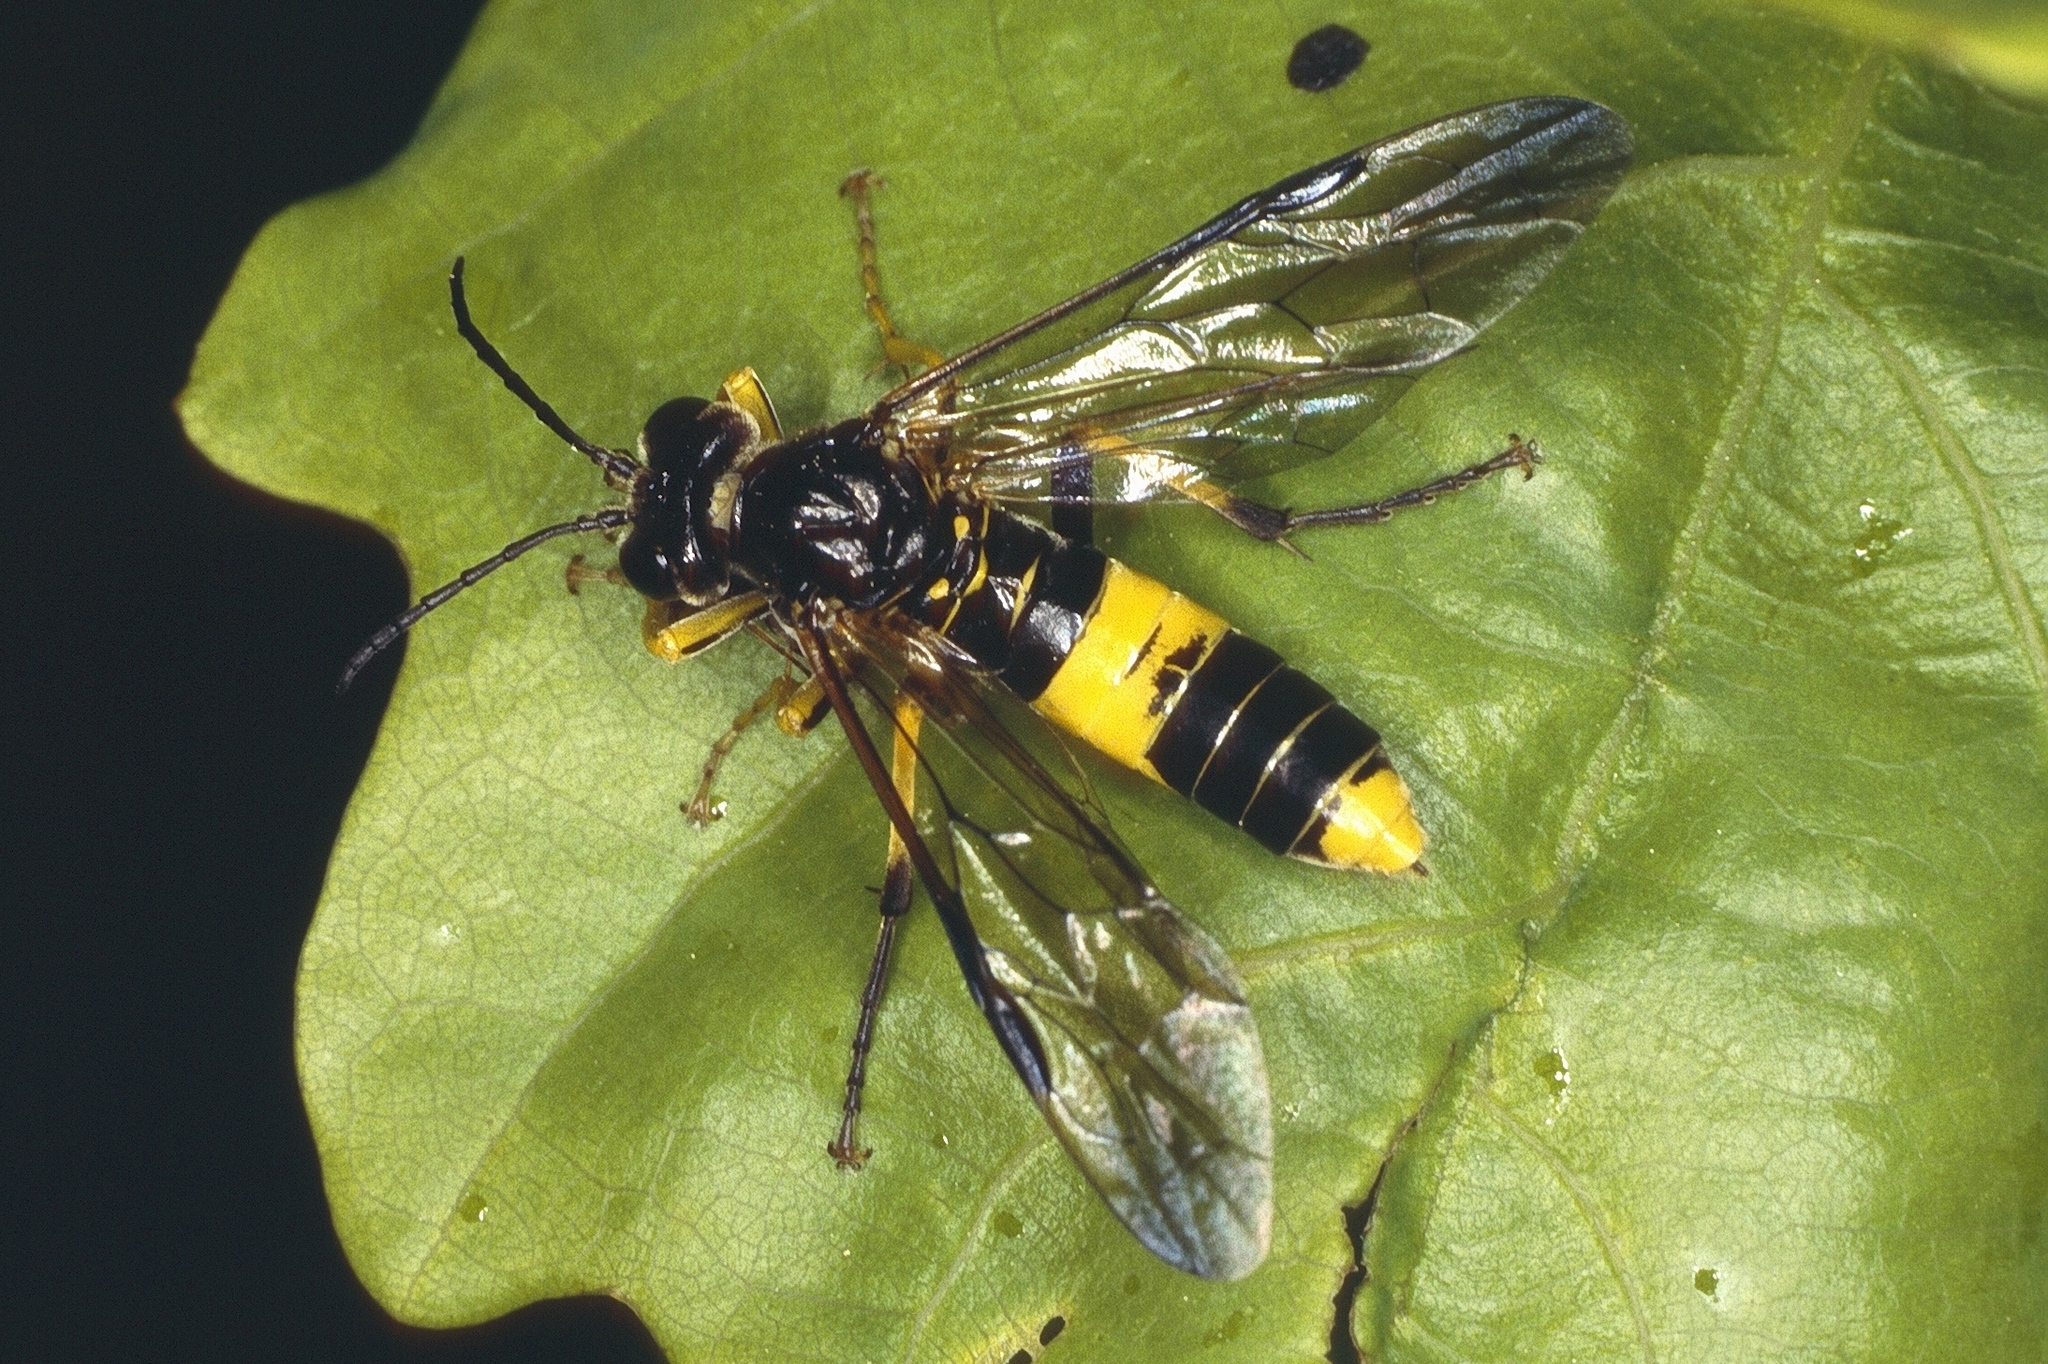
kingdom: Animalia
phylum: Arthropoda
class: Insecta
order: Hymenoptera
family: Tenthredinidae
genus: Tenthredo
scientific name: Tenthredo temula
